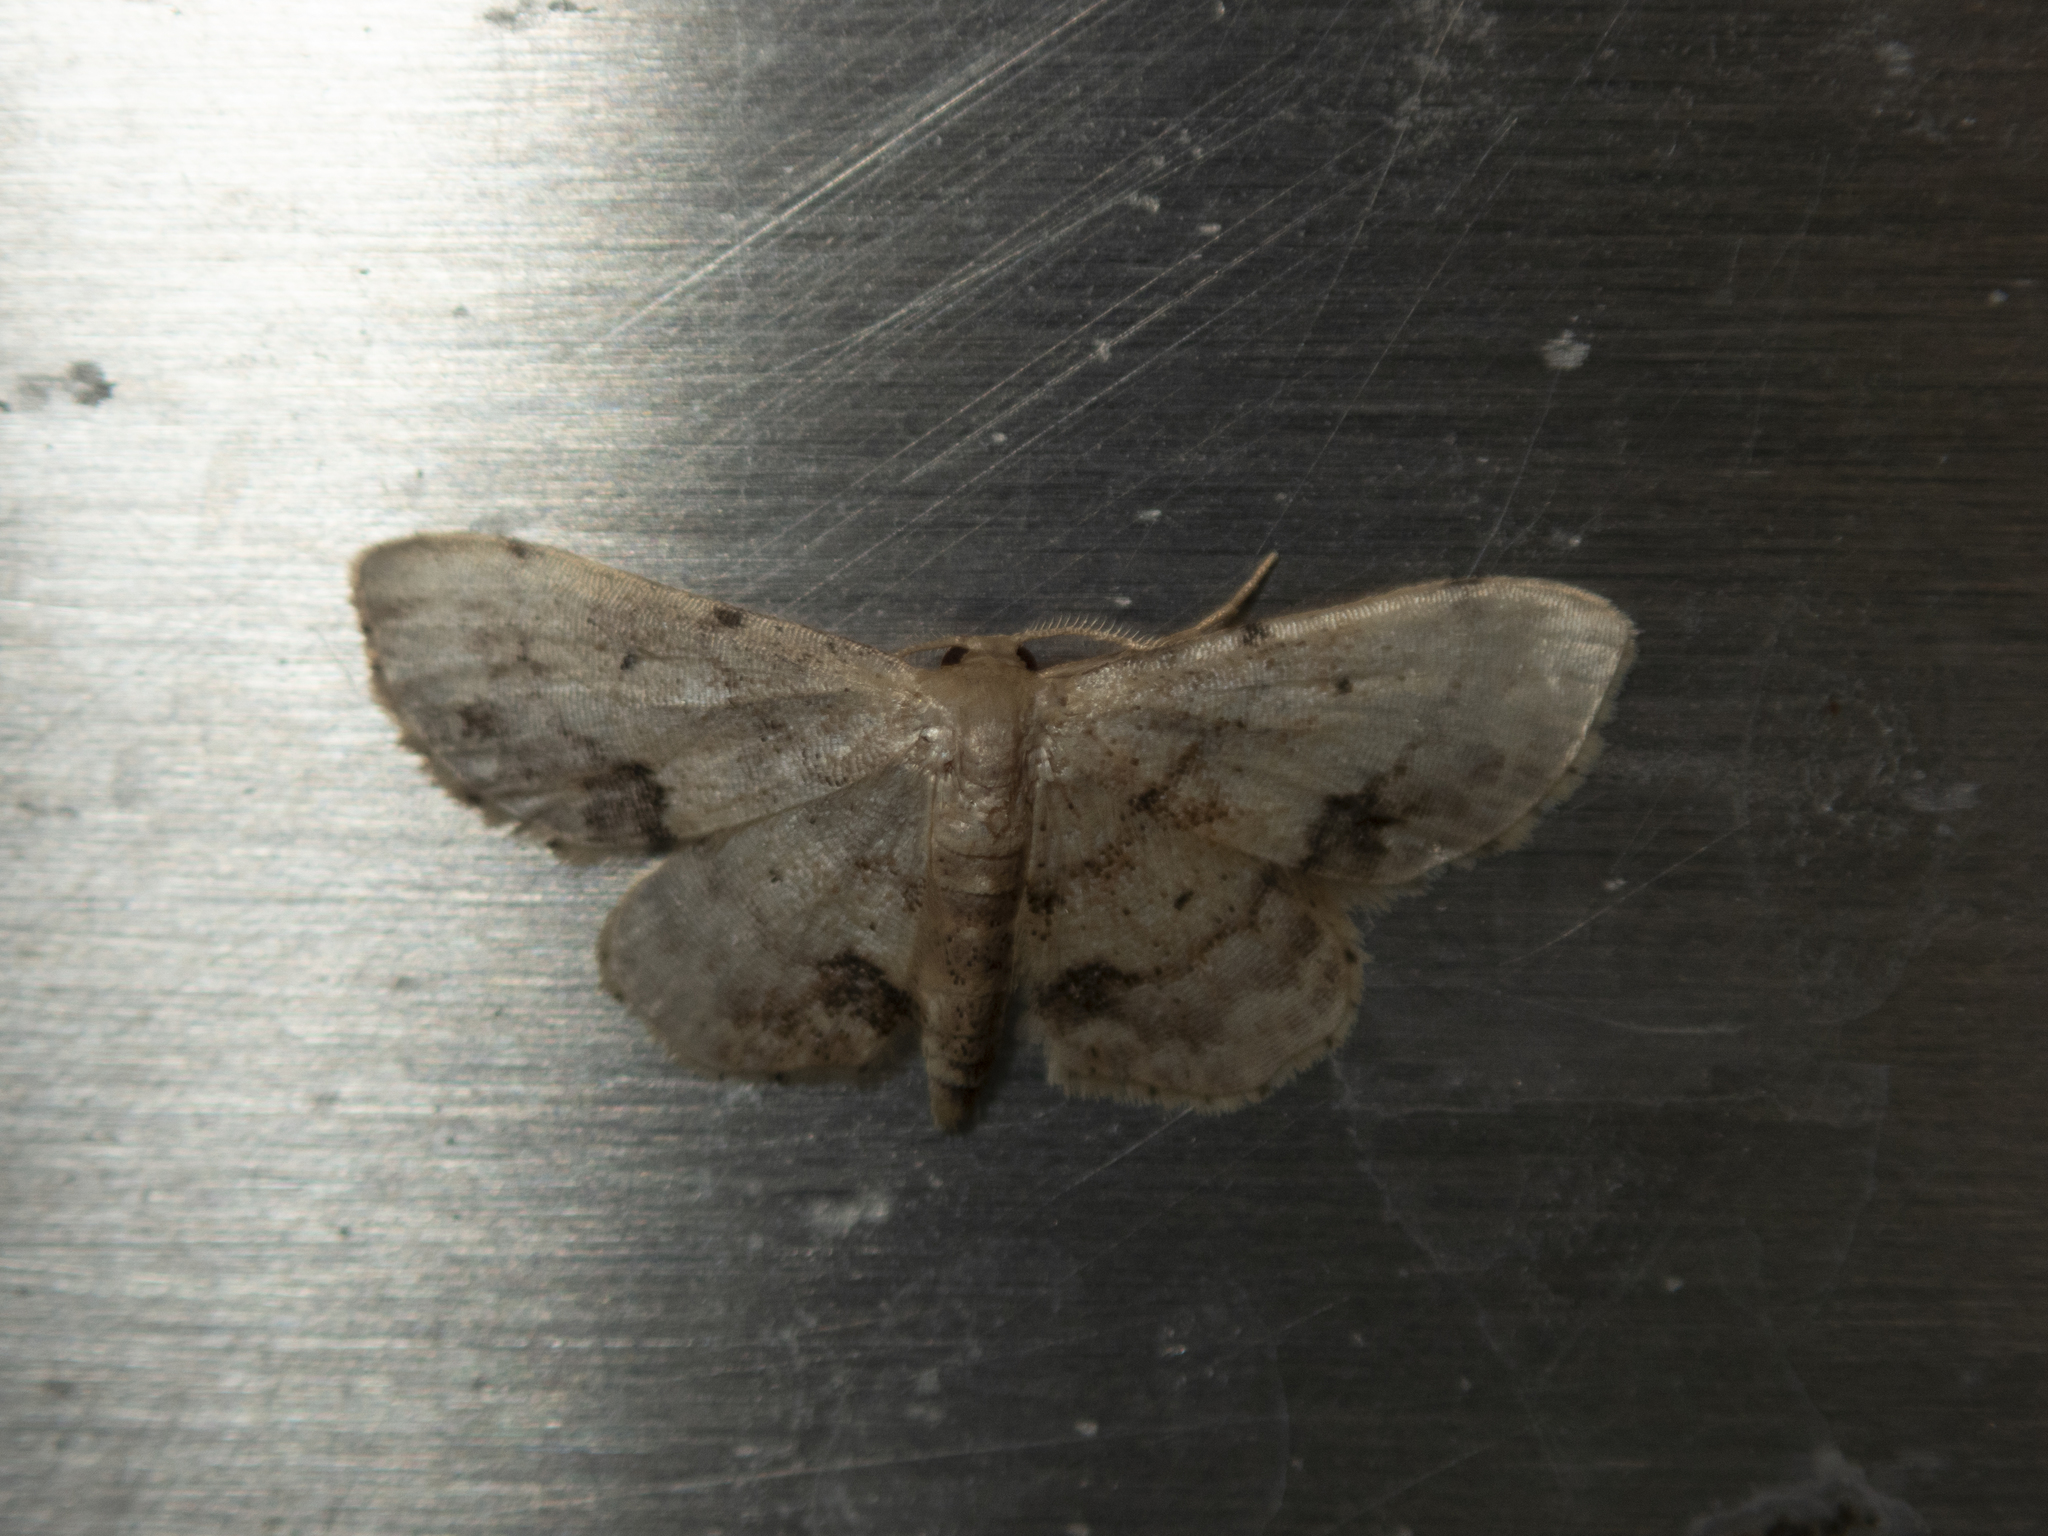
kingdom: Animalia
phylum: Arthropoda
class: Insecta
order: Lepidoptera
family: Geometridae
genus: Idaea
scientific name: Idaea chotaria
